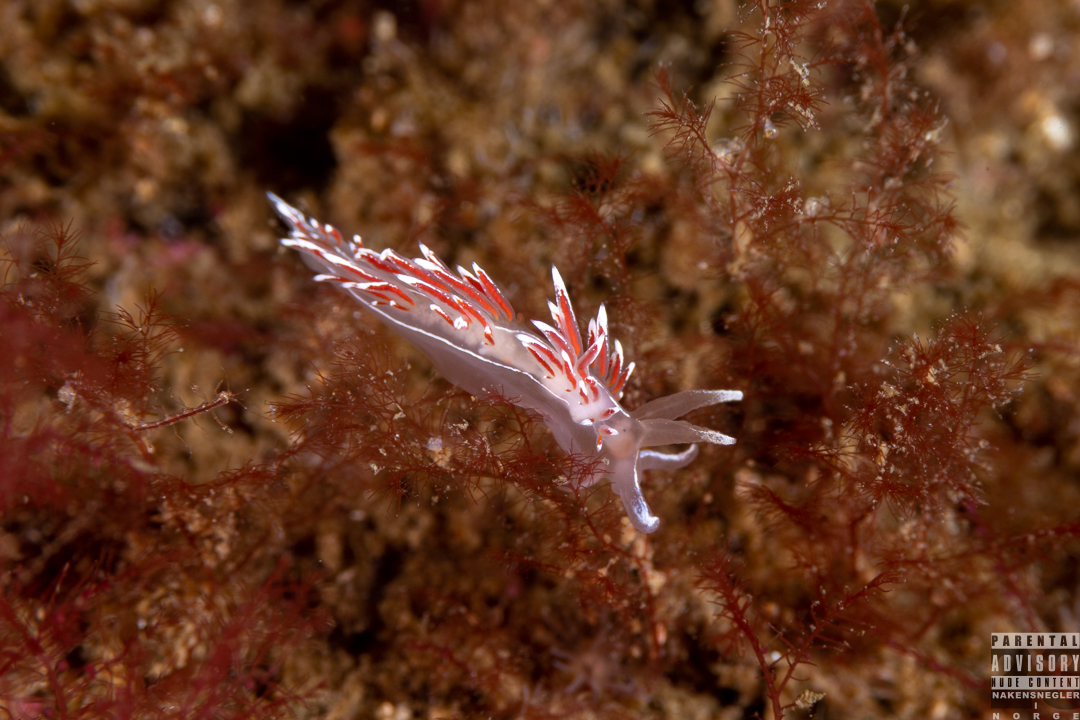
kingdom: Animalia
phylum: Mollusca
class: Gastropoda
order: Nudibranchia
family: Coryphellidae
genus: Coryphella
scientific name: Coryphella lineata
